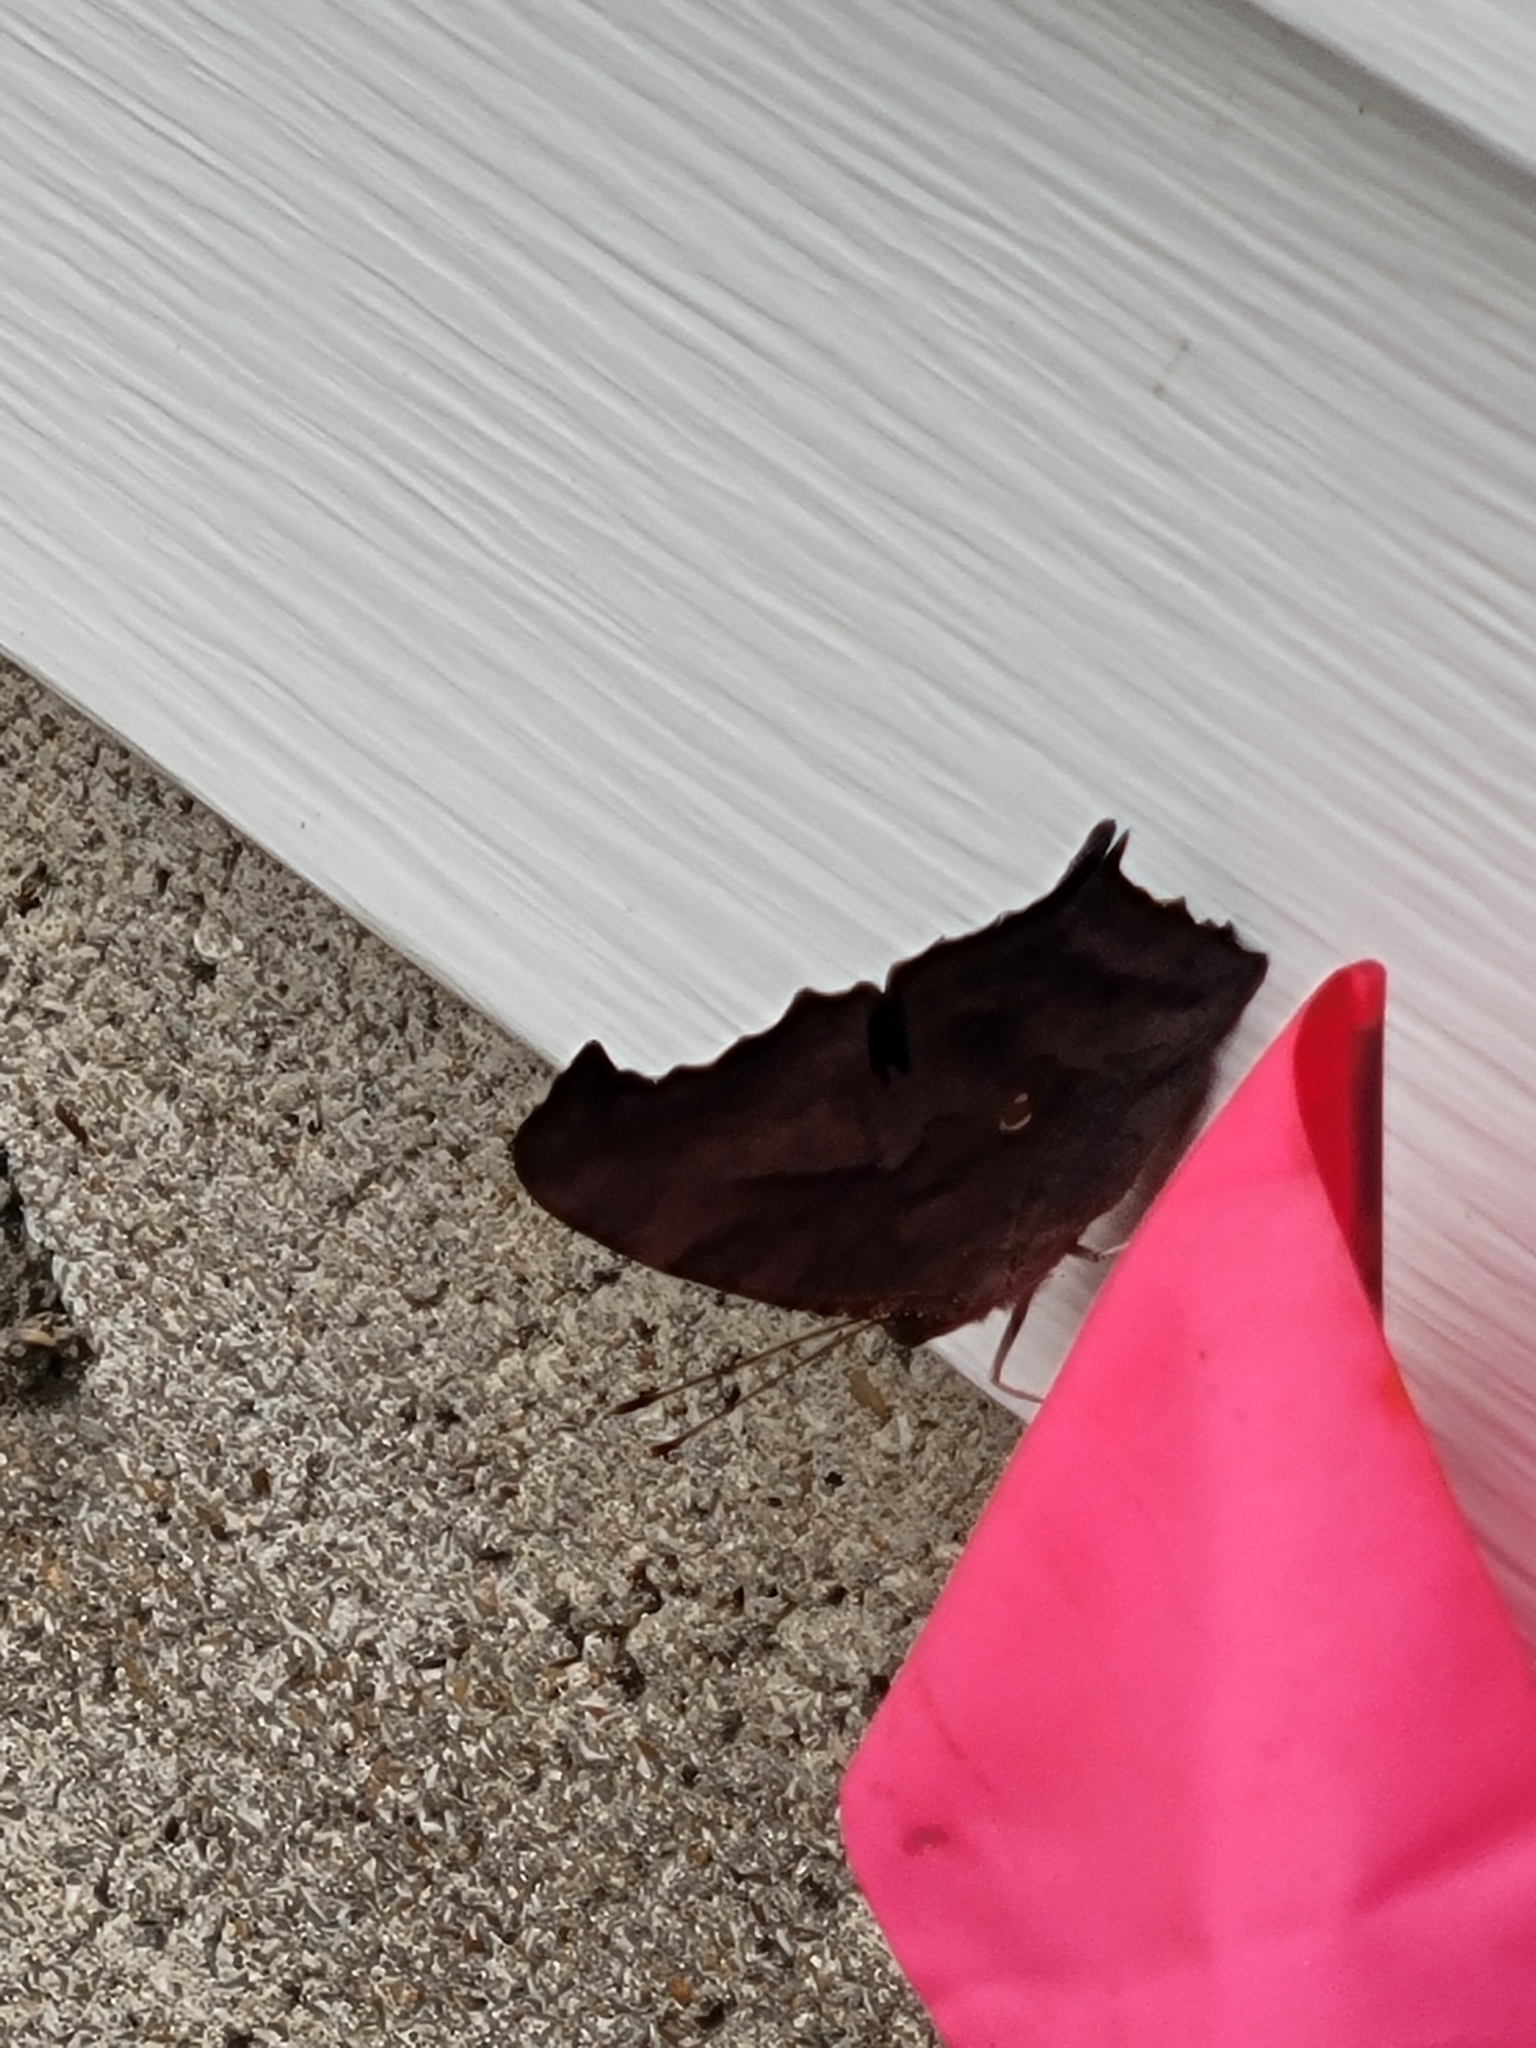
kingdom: Animalia
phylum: Arthropoda
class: Insecta
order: Lepidoptera
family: Nymphalidae
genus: Polygonia
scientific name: Polygonia interrogationis
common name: Question mark
